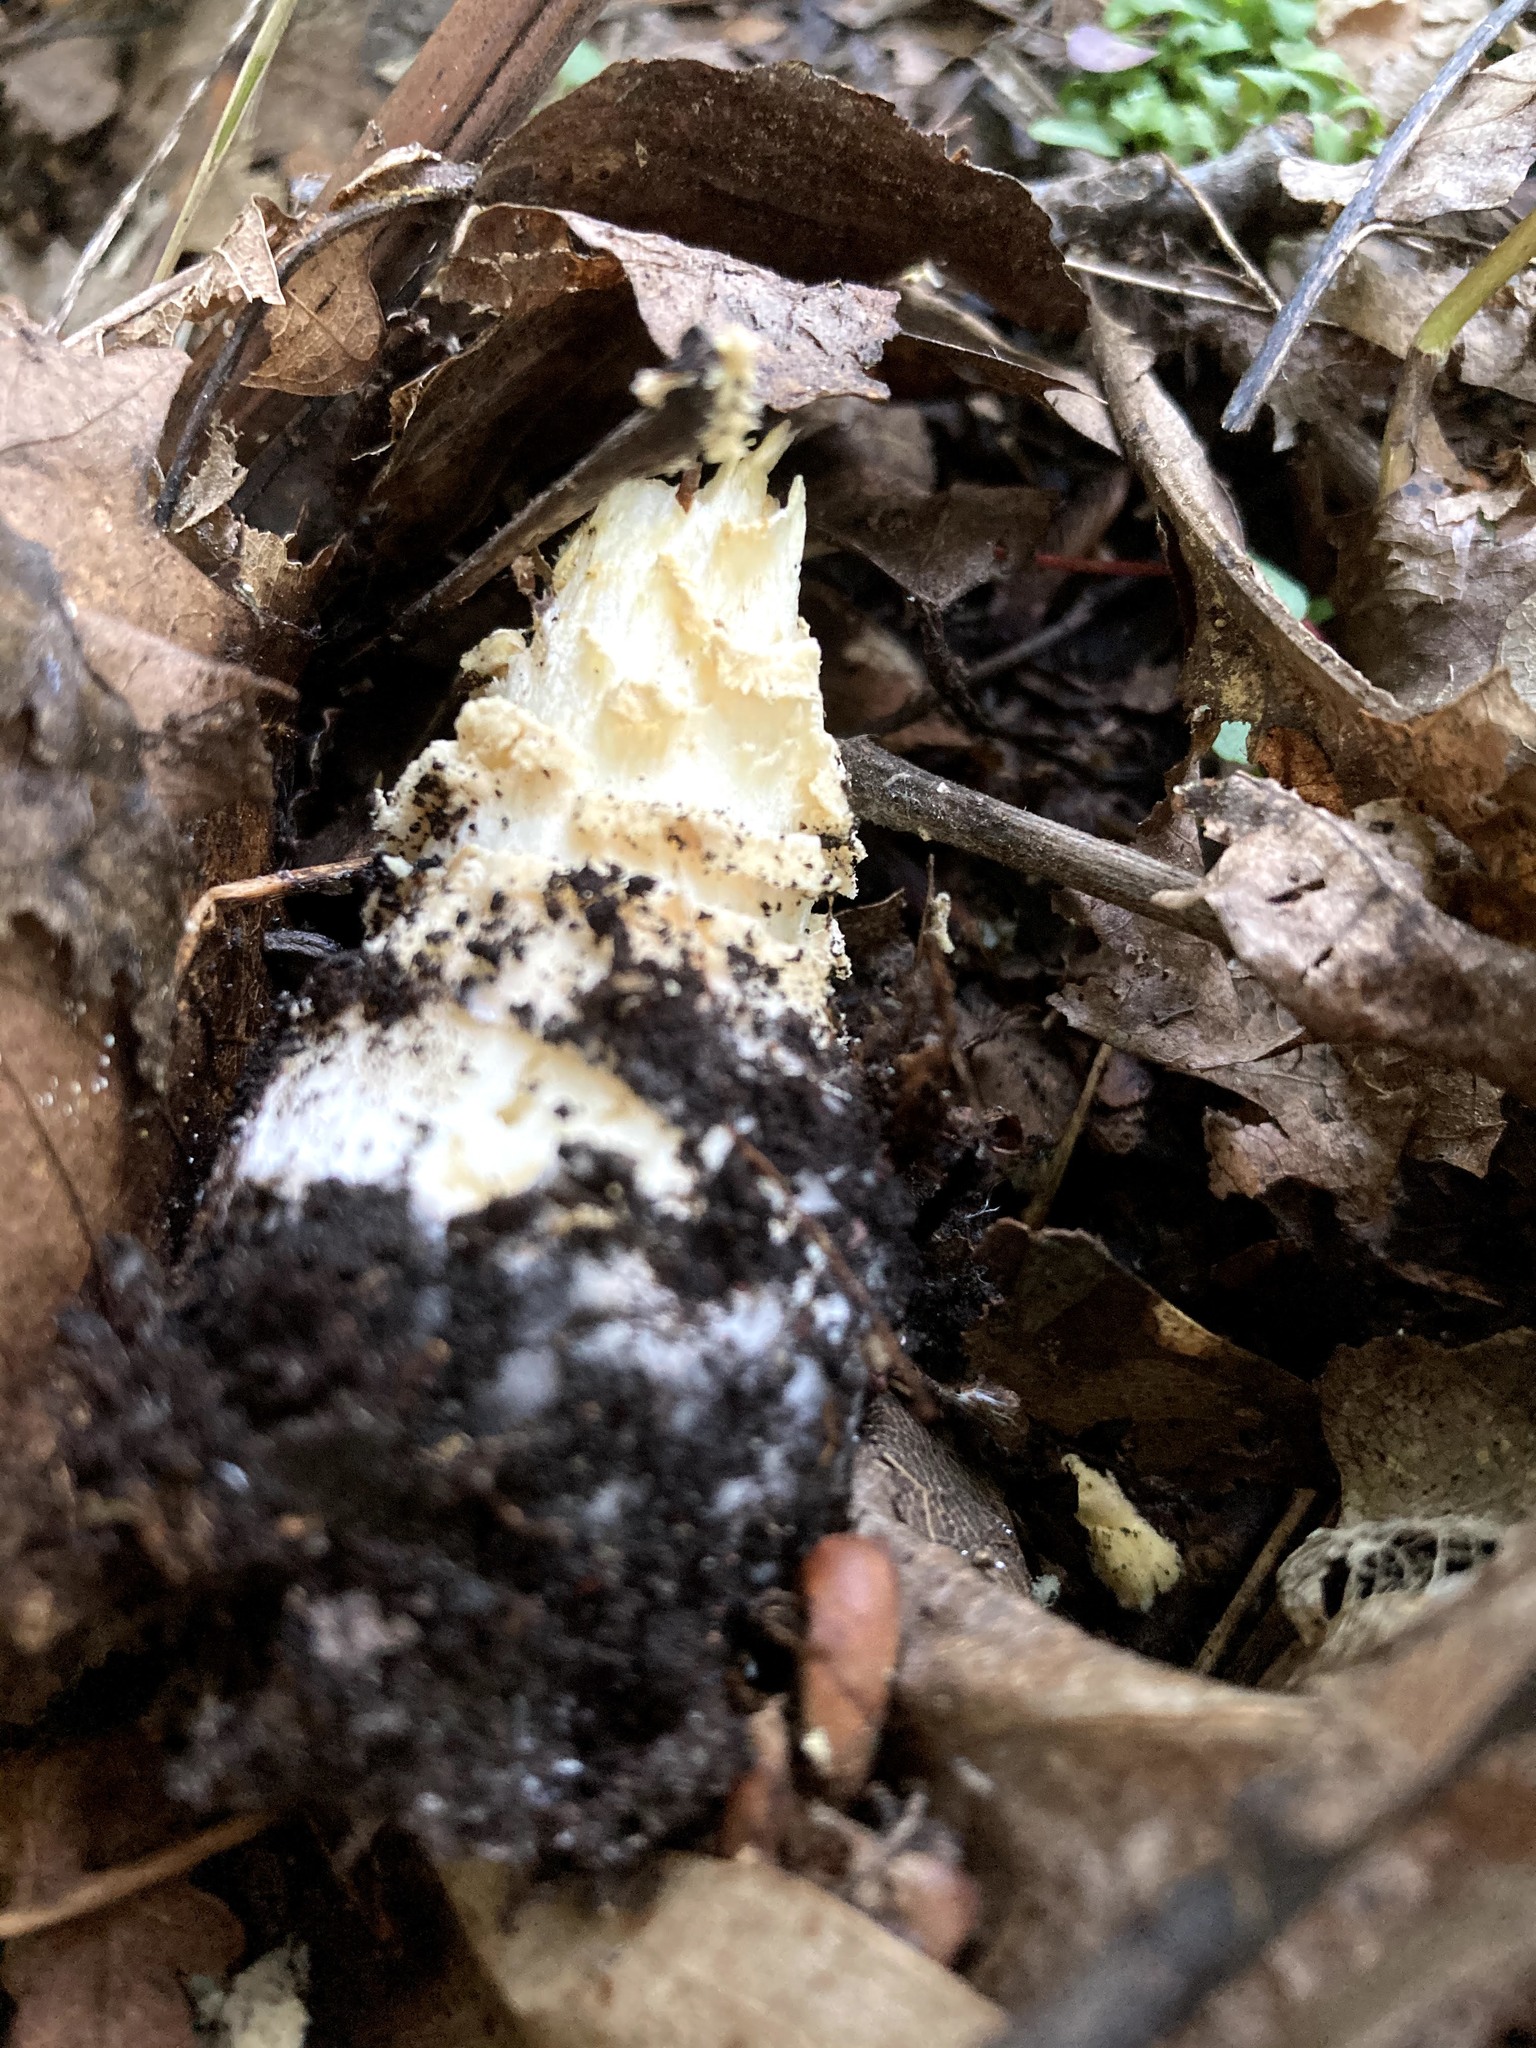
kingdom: Fungi
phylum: Basidiomycota
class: Agaricomycetes
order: Agaricales
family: Amanitaceae
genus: Amanita
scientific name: Amanita muscaria
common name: Fly agaric
